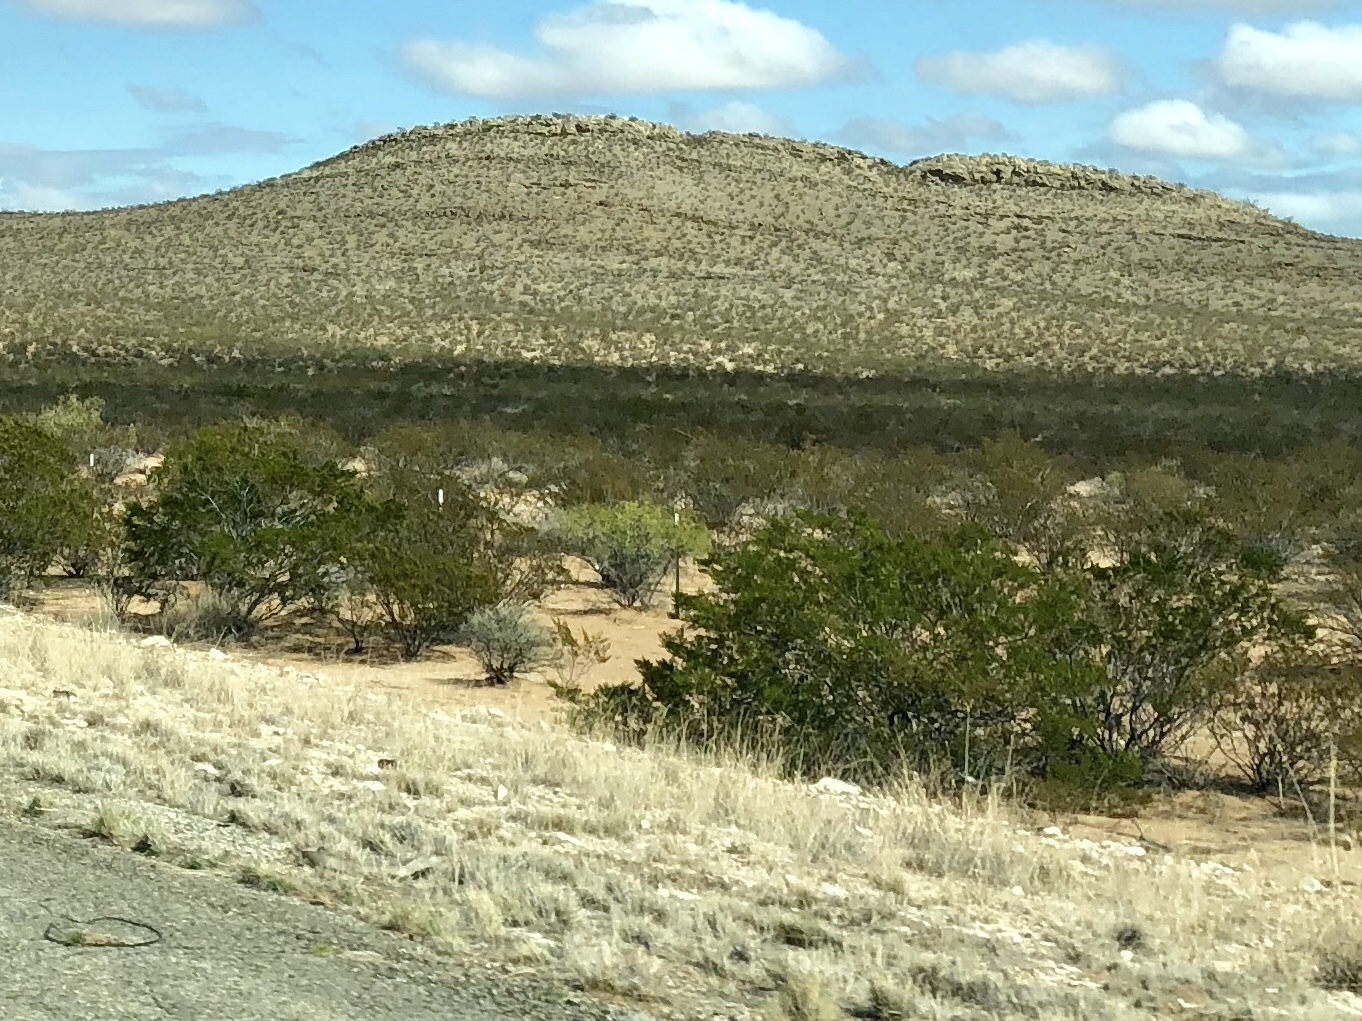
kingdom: Plantae
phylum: Tracheophyta
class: Magnoliopsida
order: Zygophyllales
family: Zygophyllaceae
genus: Larrea
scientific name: Larrea tridentata
